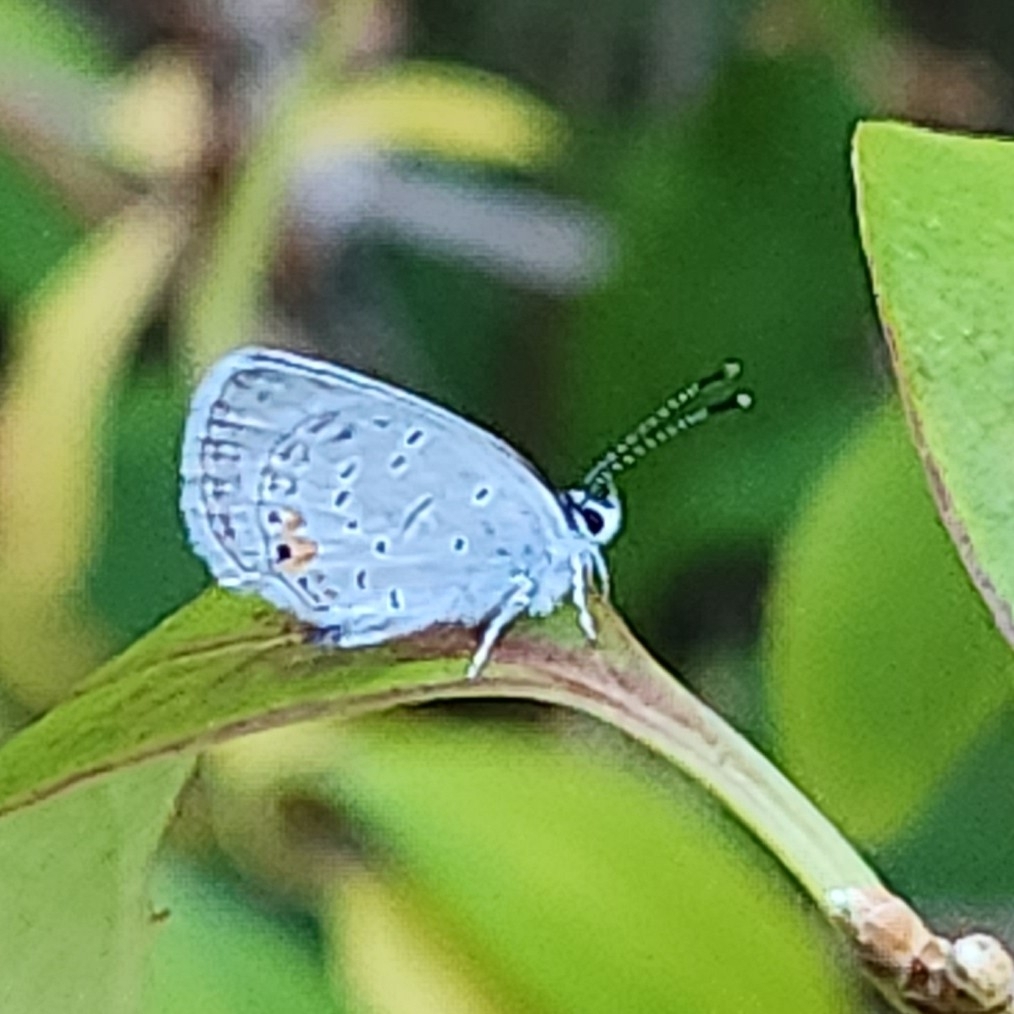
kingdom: Animalia
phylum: Arthropoda
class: Insecta
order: Lepidoptera
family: Lycaenidae
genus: Elkalyce
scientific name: Elkalyce comyntas
